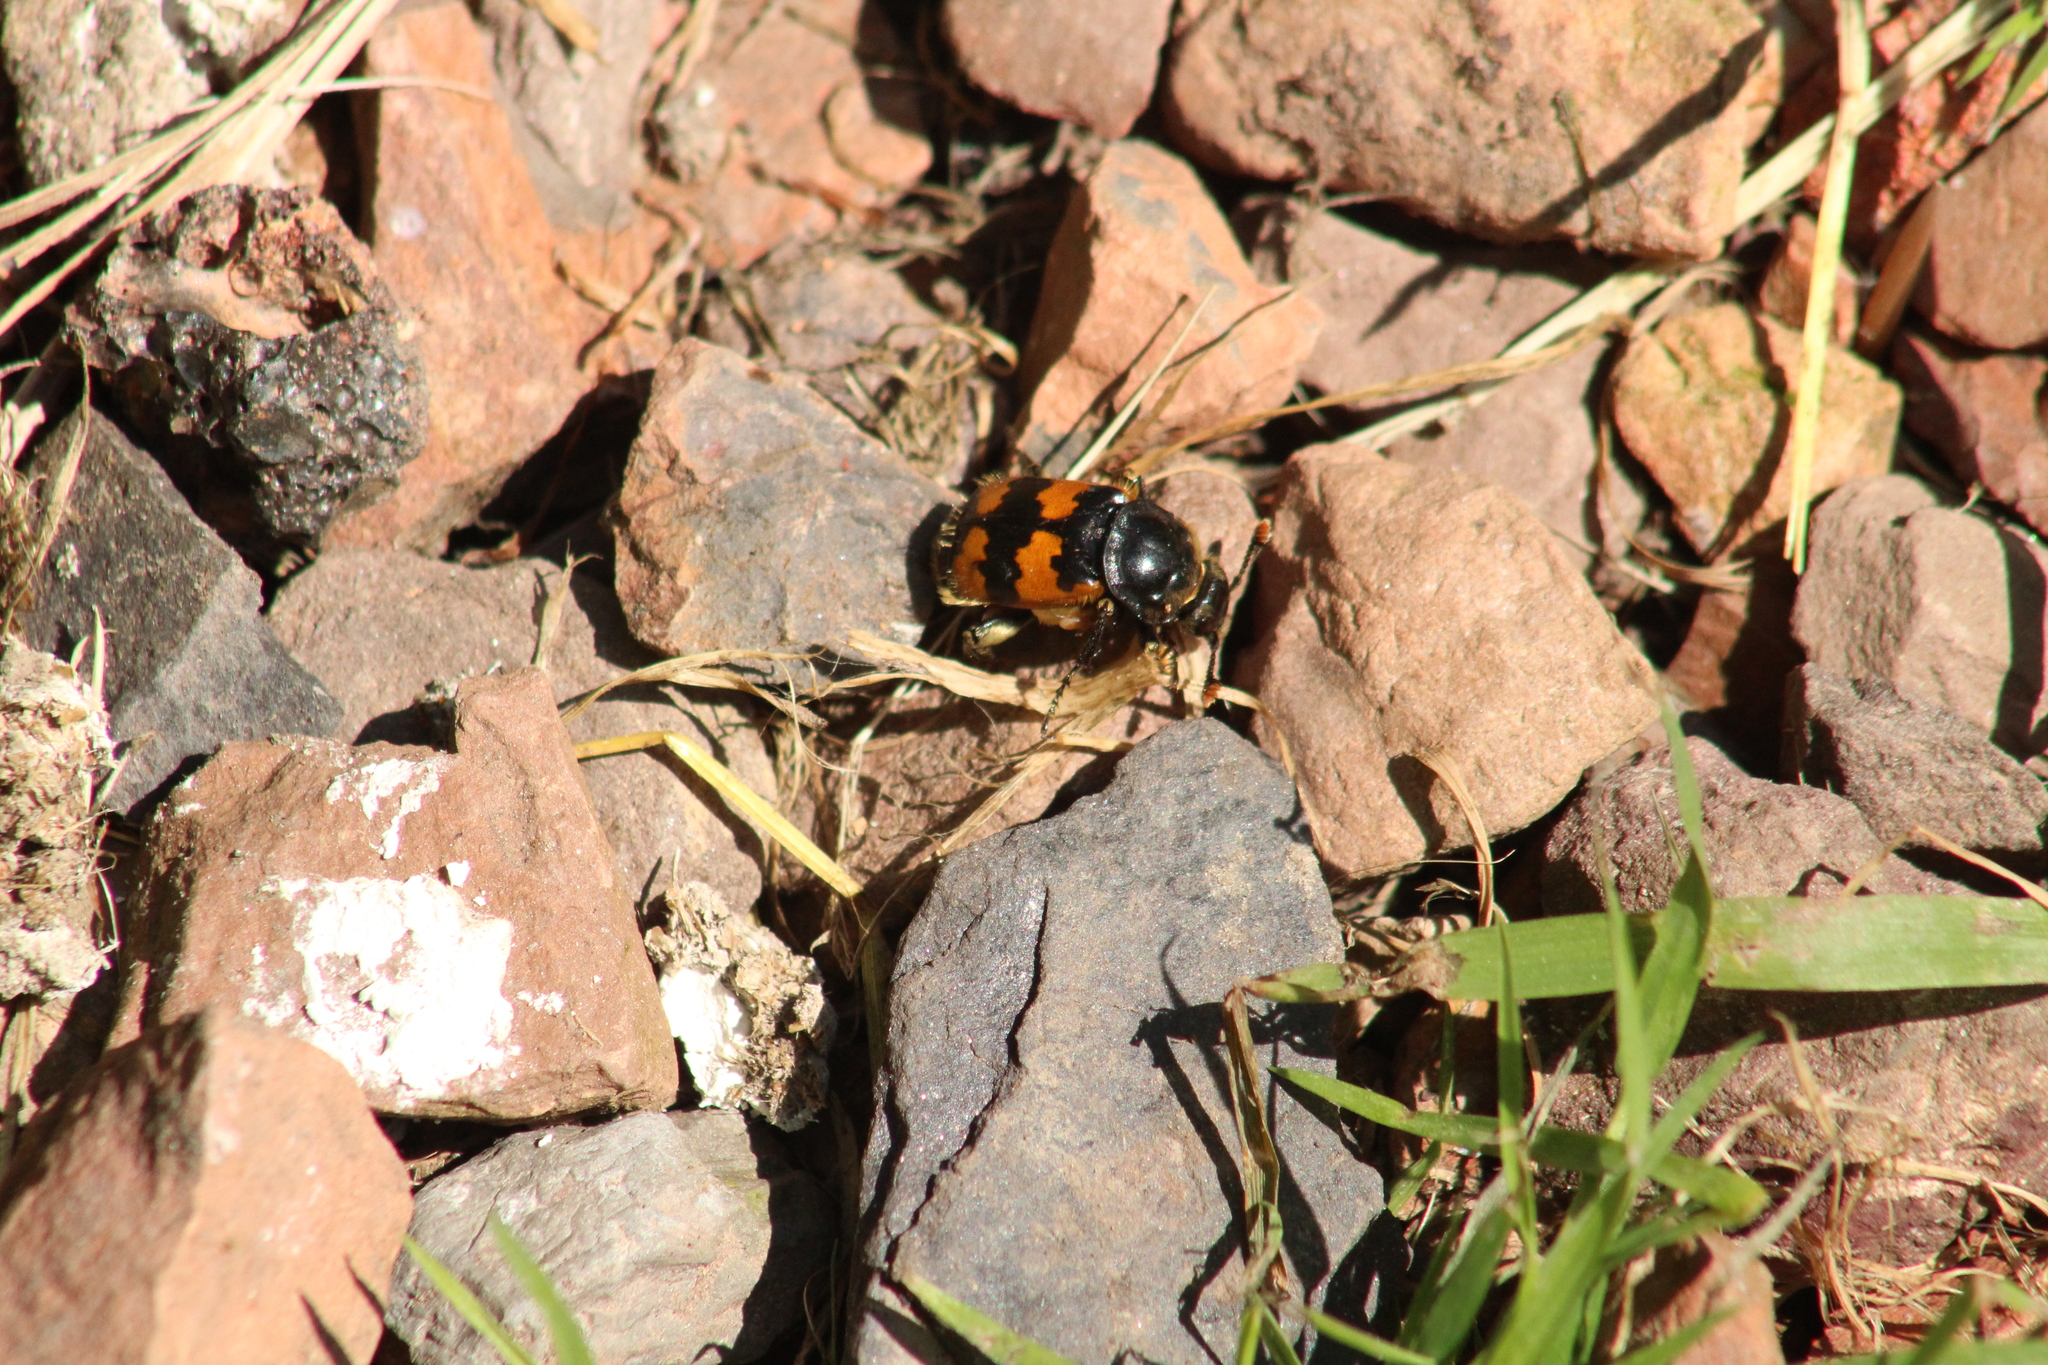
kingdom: Animalia
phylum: Arthropoda
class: Insecta
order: Coleoptera
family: Staphylinidae
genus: Nicrophorus
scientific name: Nicrophorus vespillo
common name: Common burying beetle
